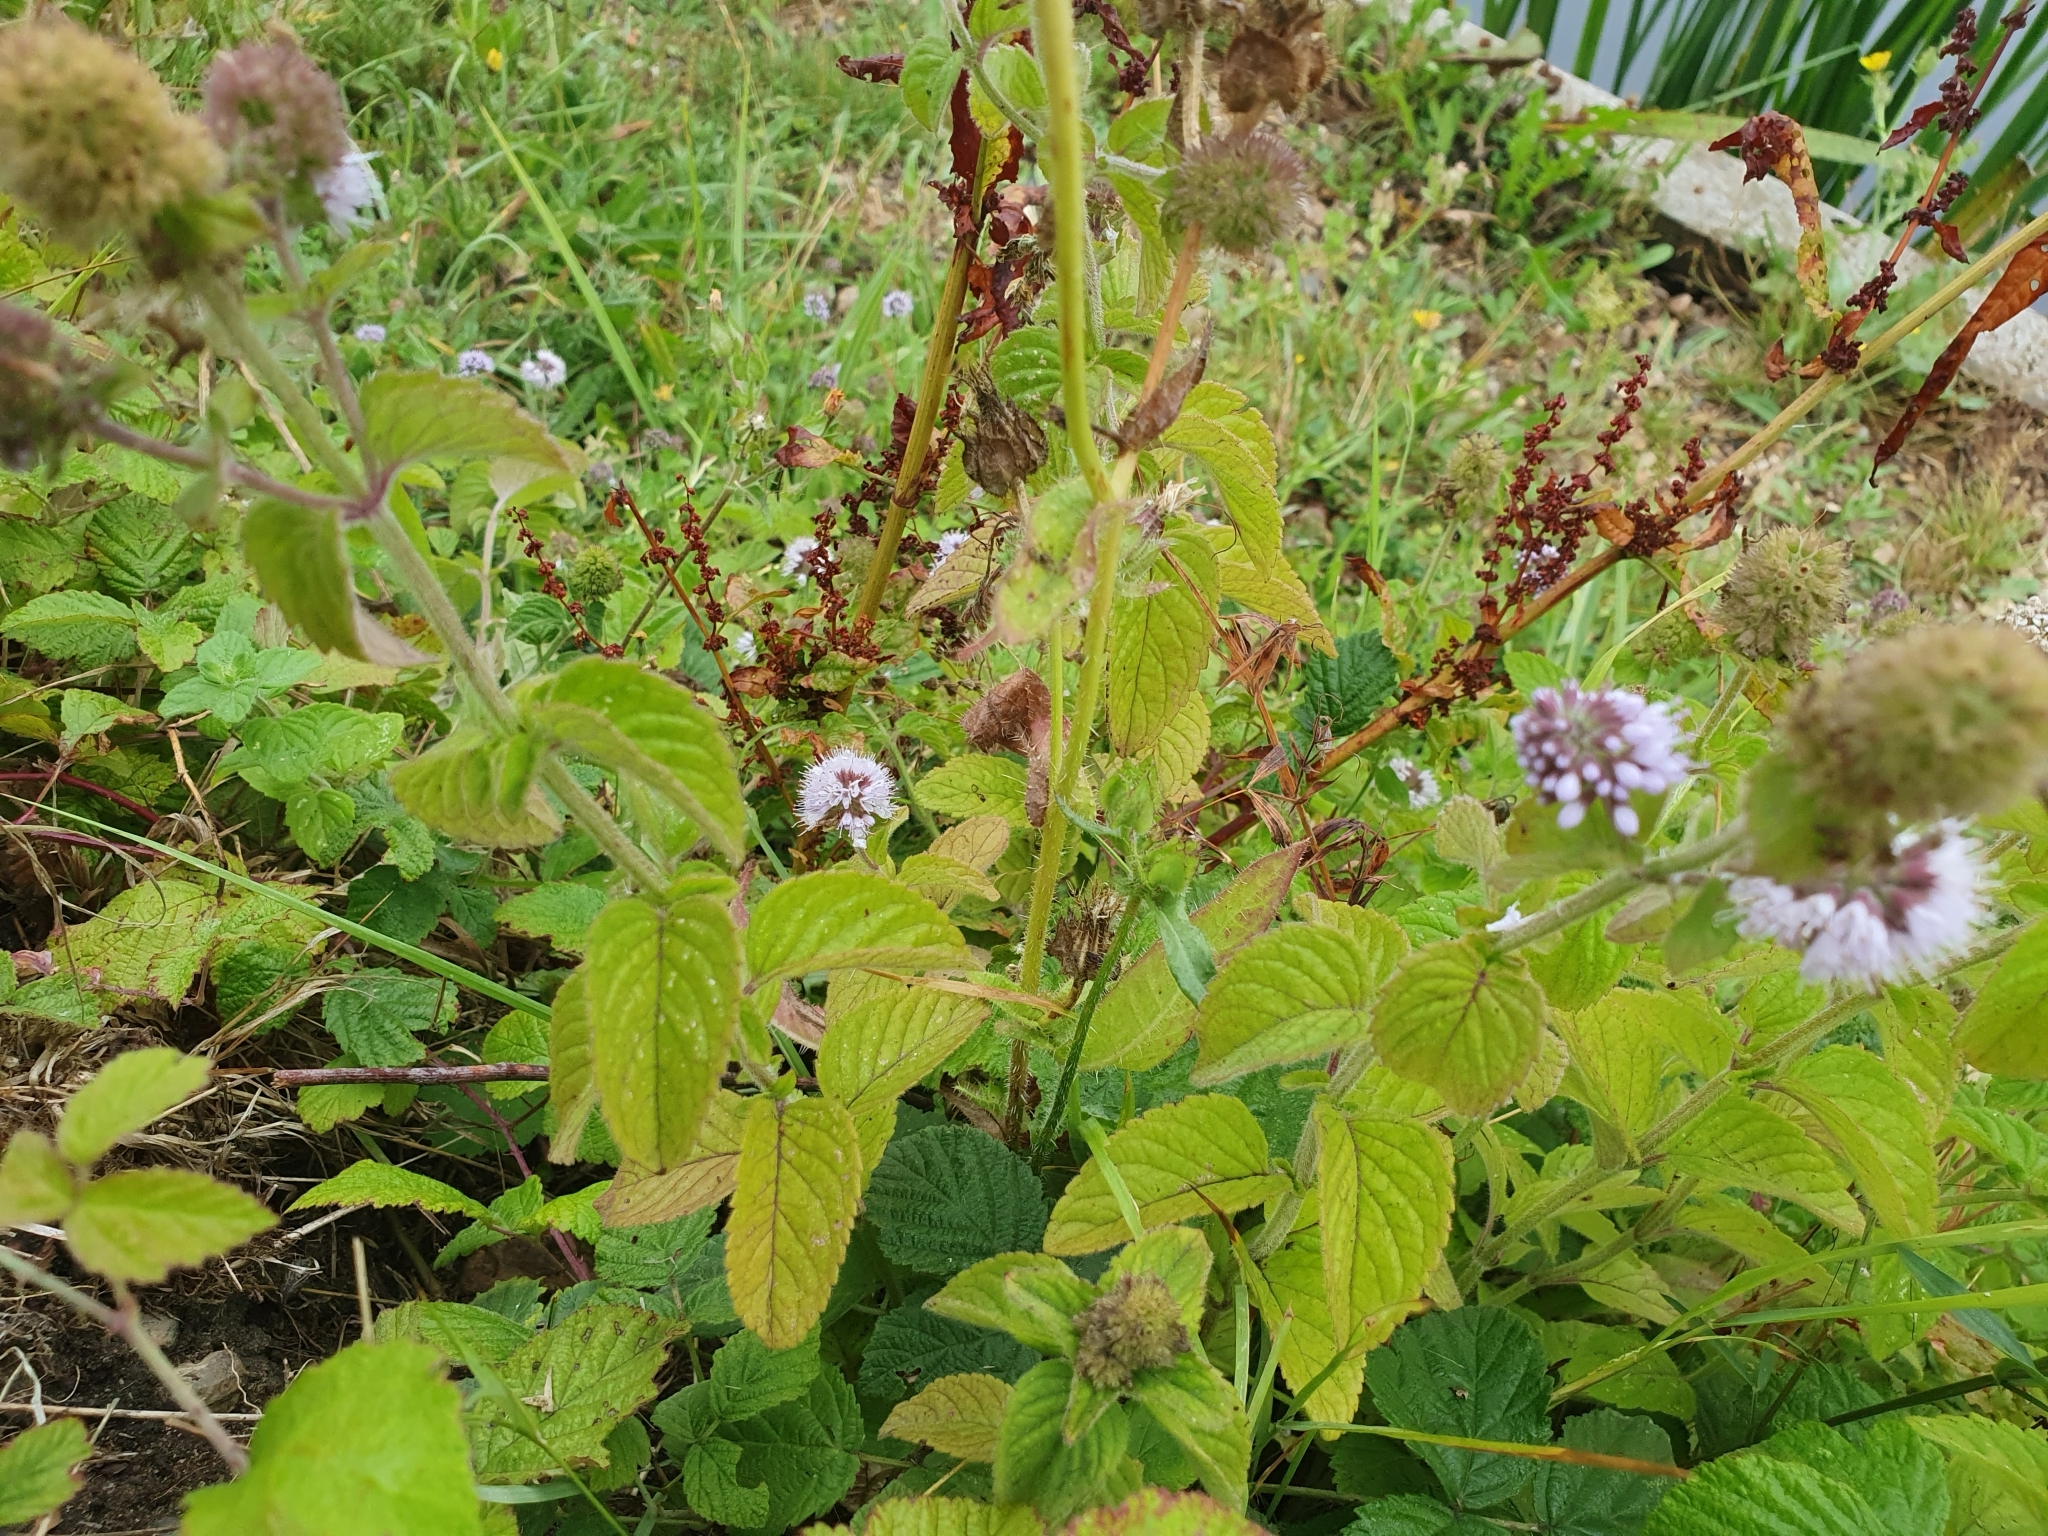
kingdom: Plantae
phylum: Tracheophyta
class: Magnoliopsida
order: Lamiales
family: Lamiaceae
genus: Mentha
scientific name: Mentha aquatica
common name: Water mint
